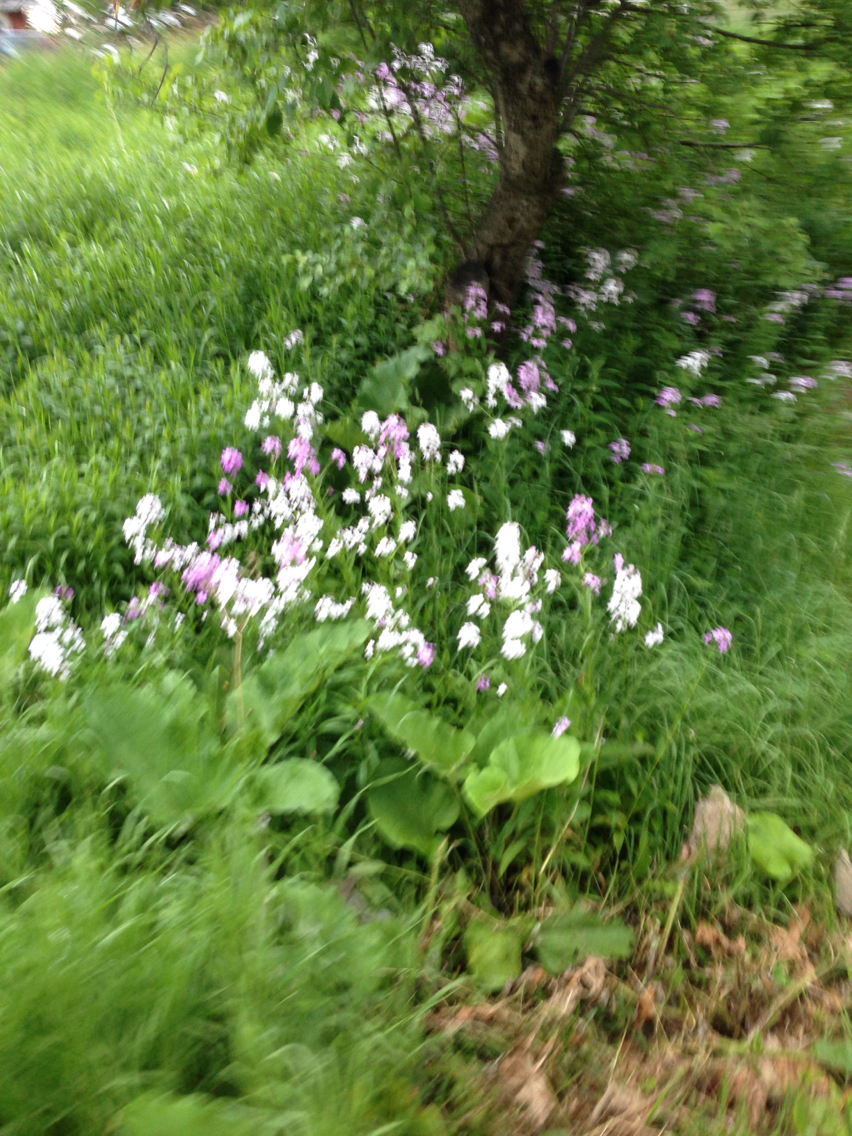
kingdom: Plantae
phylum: Tracheophyta
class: Magnoliopsida
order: Brassicales
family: Brassicaceae
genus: Hesperis
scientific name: Hesperis matronalis
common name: Dame's-violet
